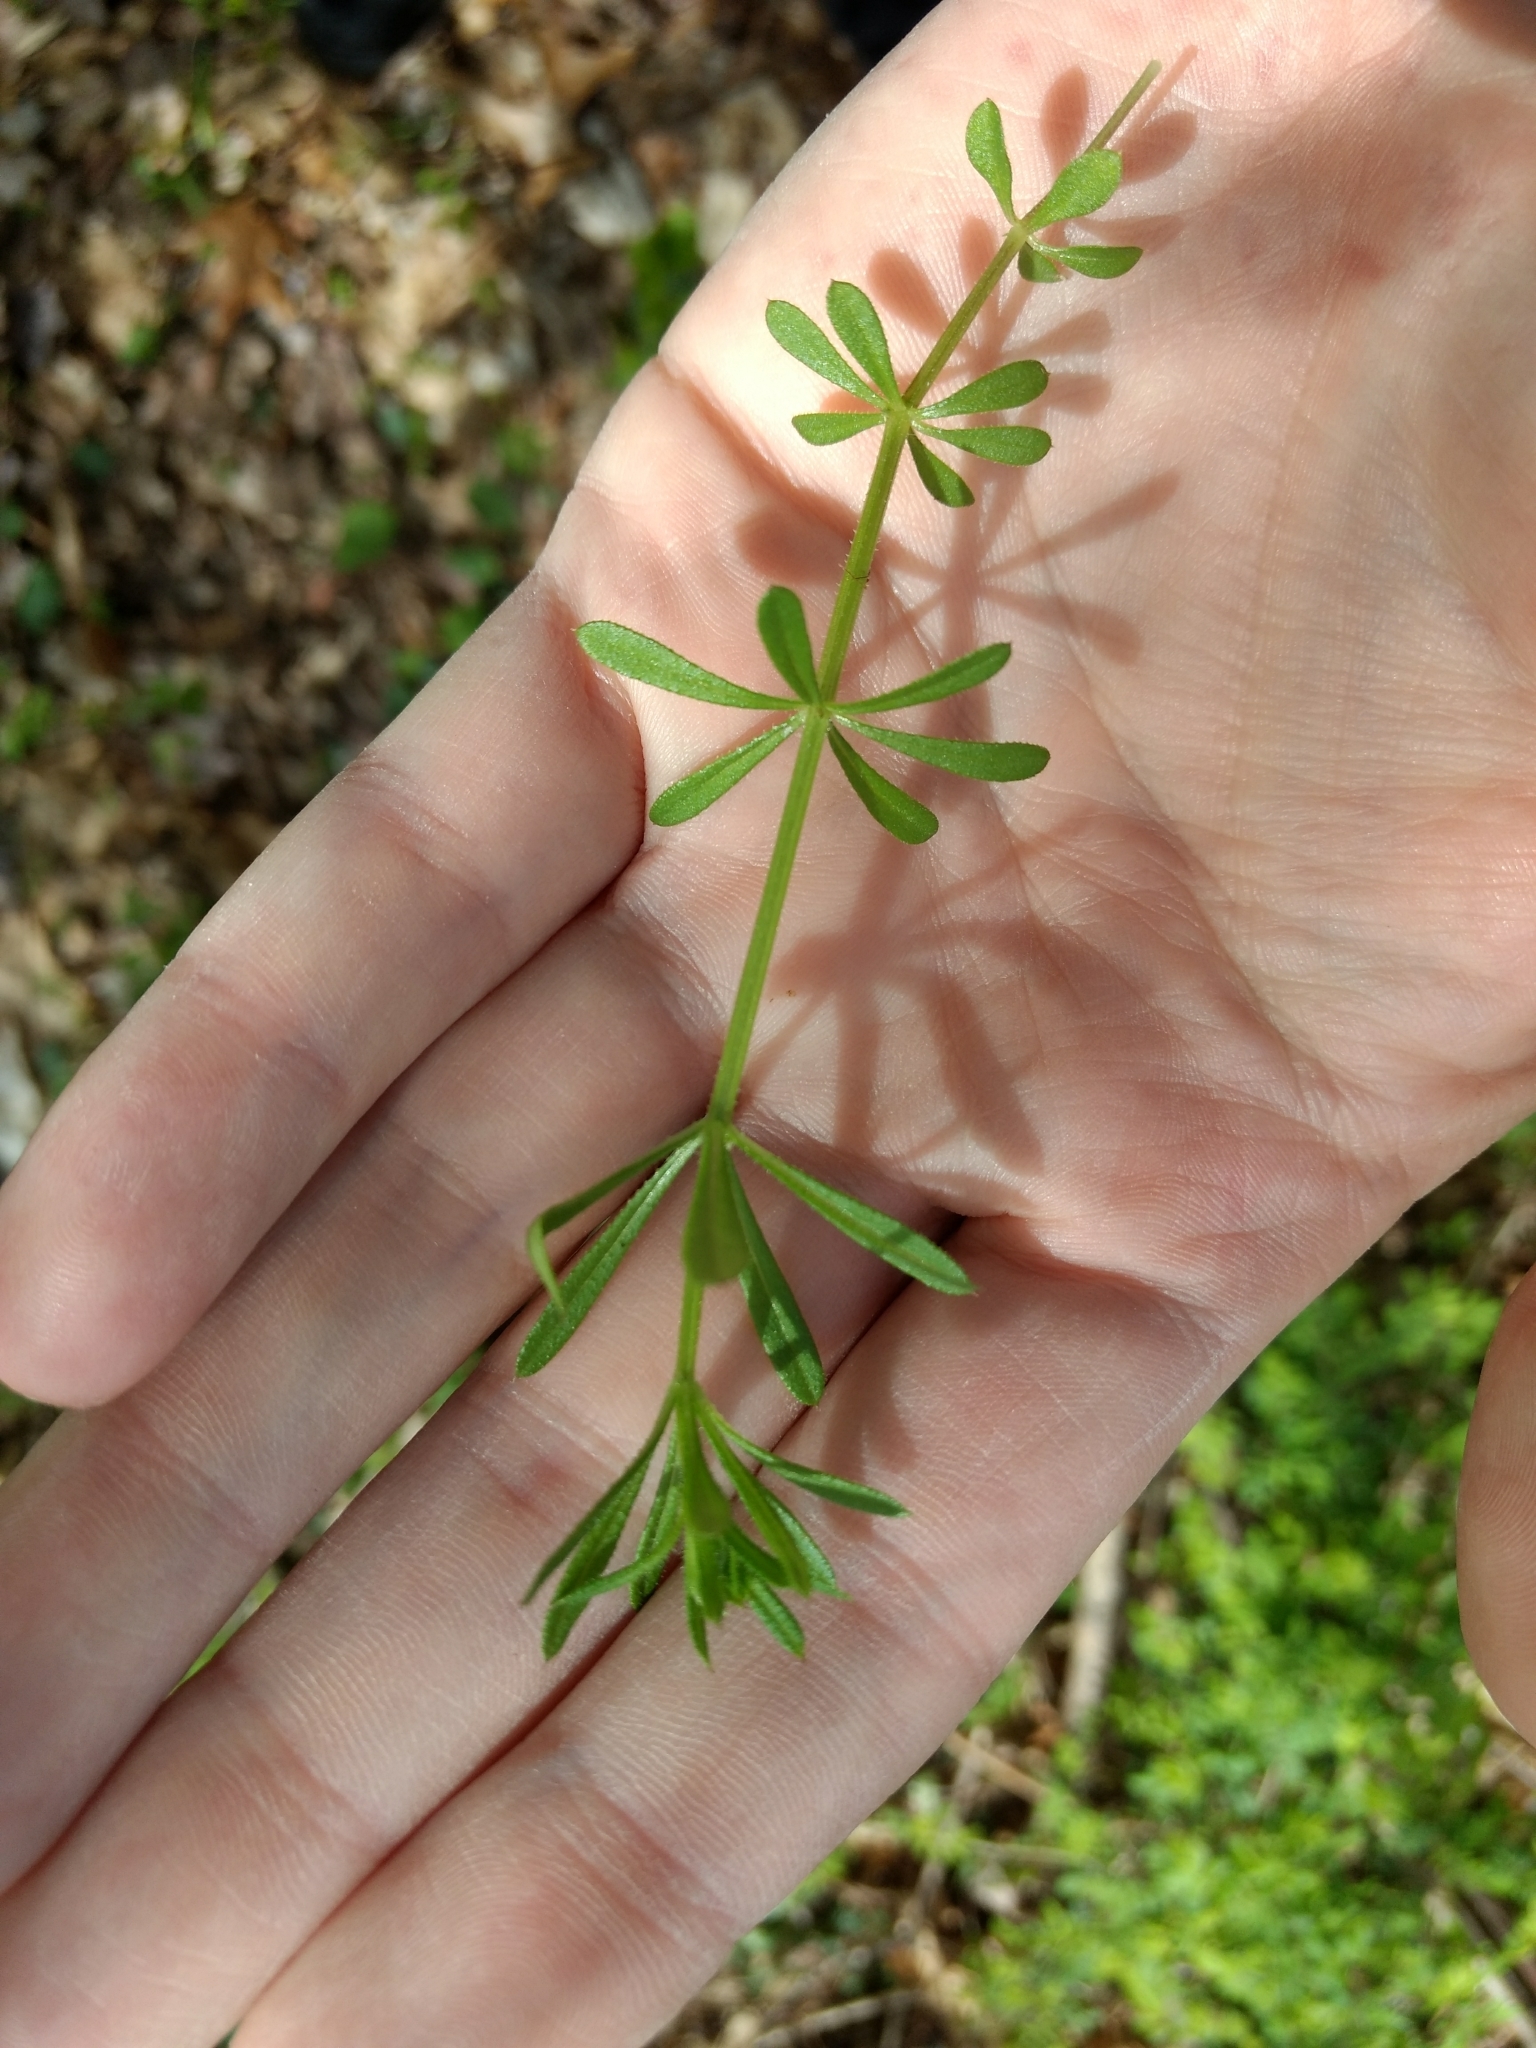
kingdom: Plantae
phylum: Tracheophyta
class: Magnoliopsida
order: Gentianales
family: Rubiaceae
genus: Galium
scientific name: Galium aparine
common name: Cleavers
